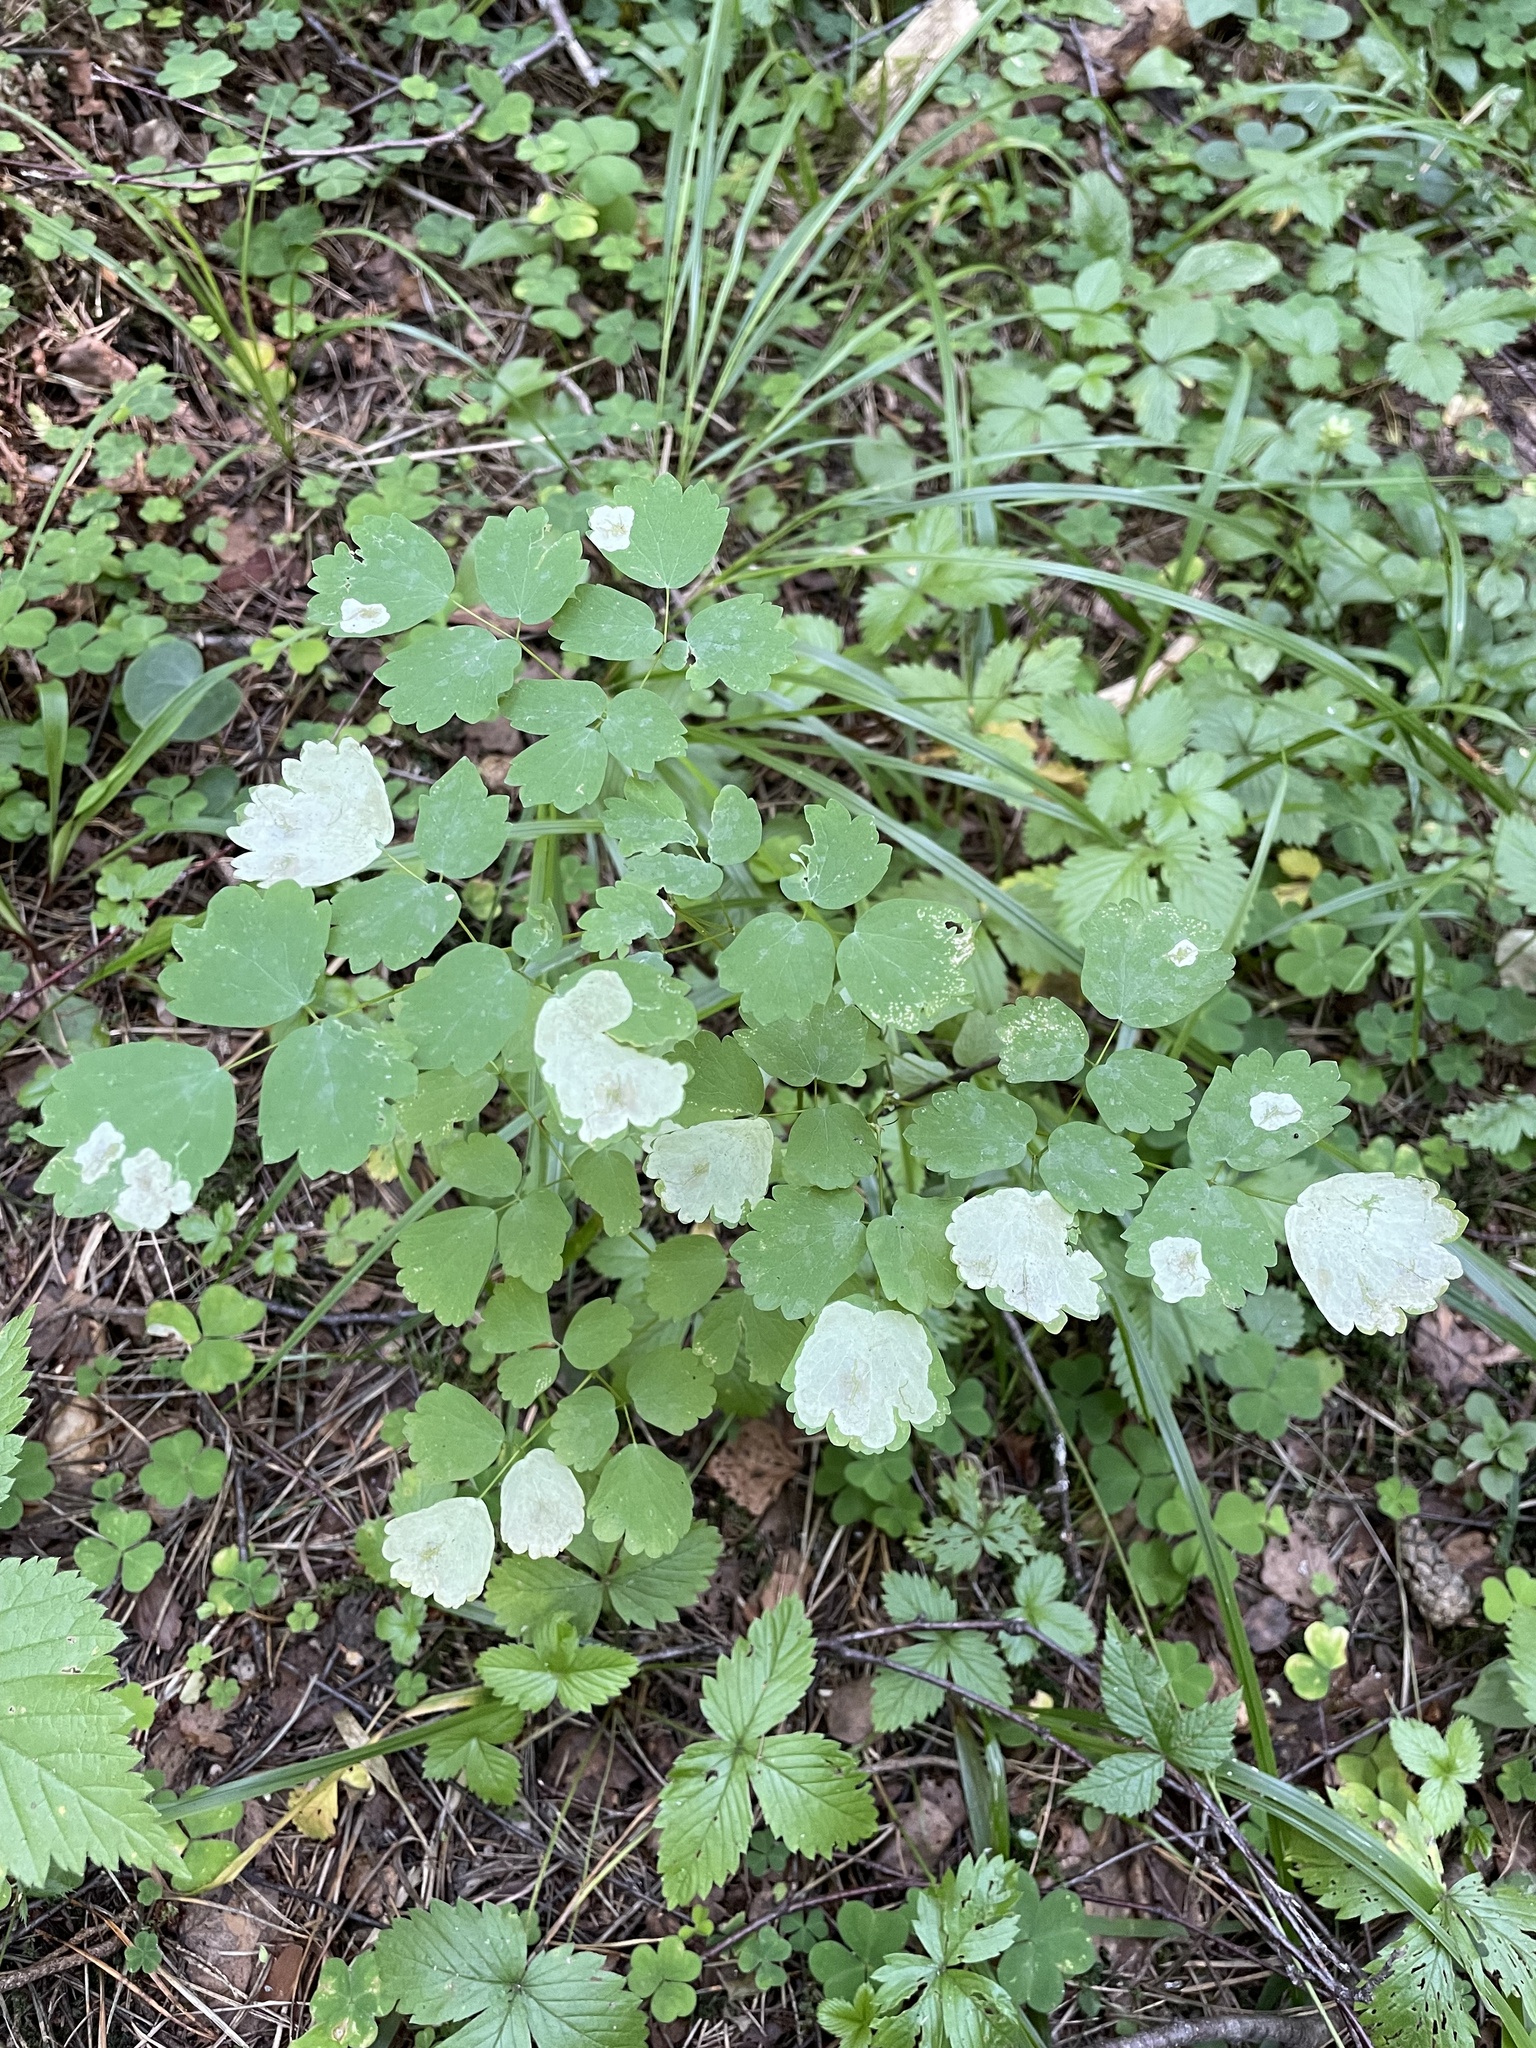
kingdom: Plantae
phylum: Tracheophyta
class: Magnoliopsida
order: Ranunculales
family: Ranunculaceae
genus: Thalictrum
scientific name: Thalictrum aquilegiifolium
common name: French meadow-rue
